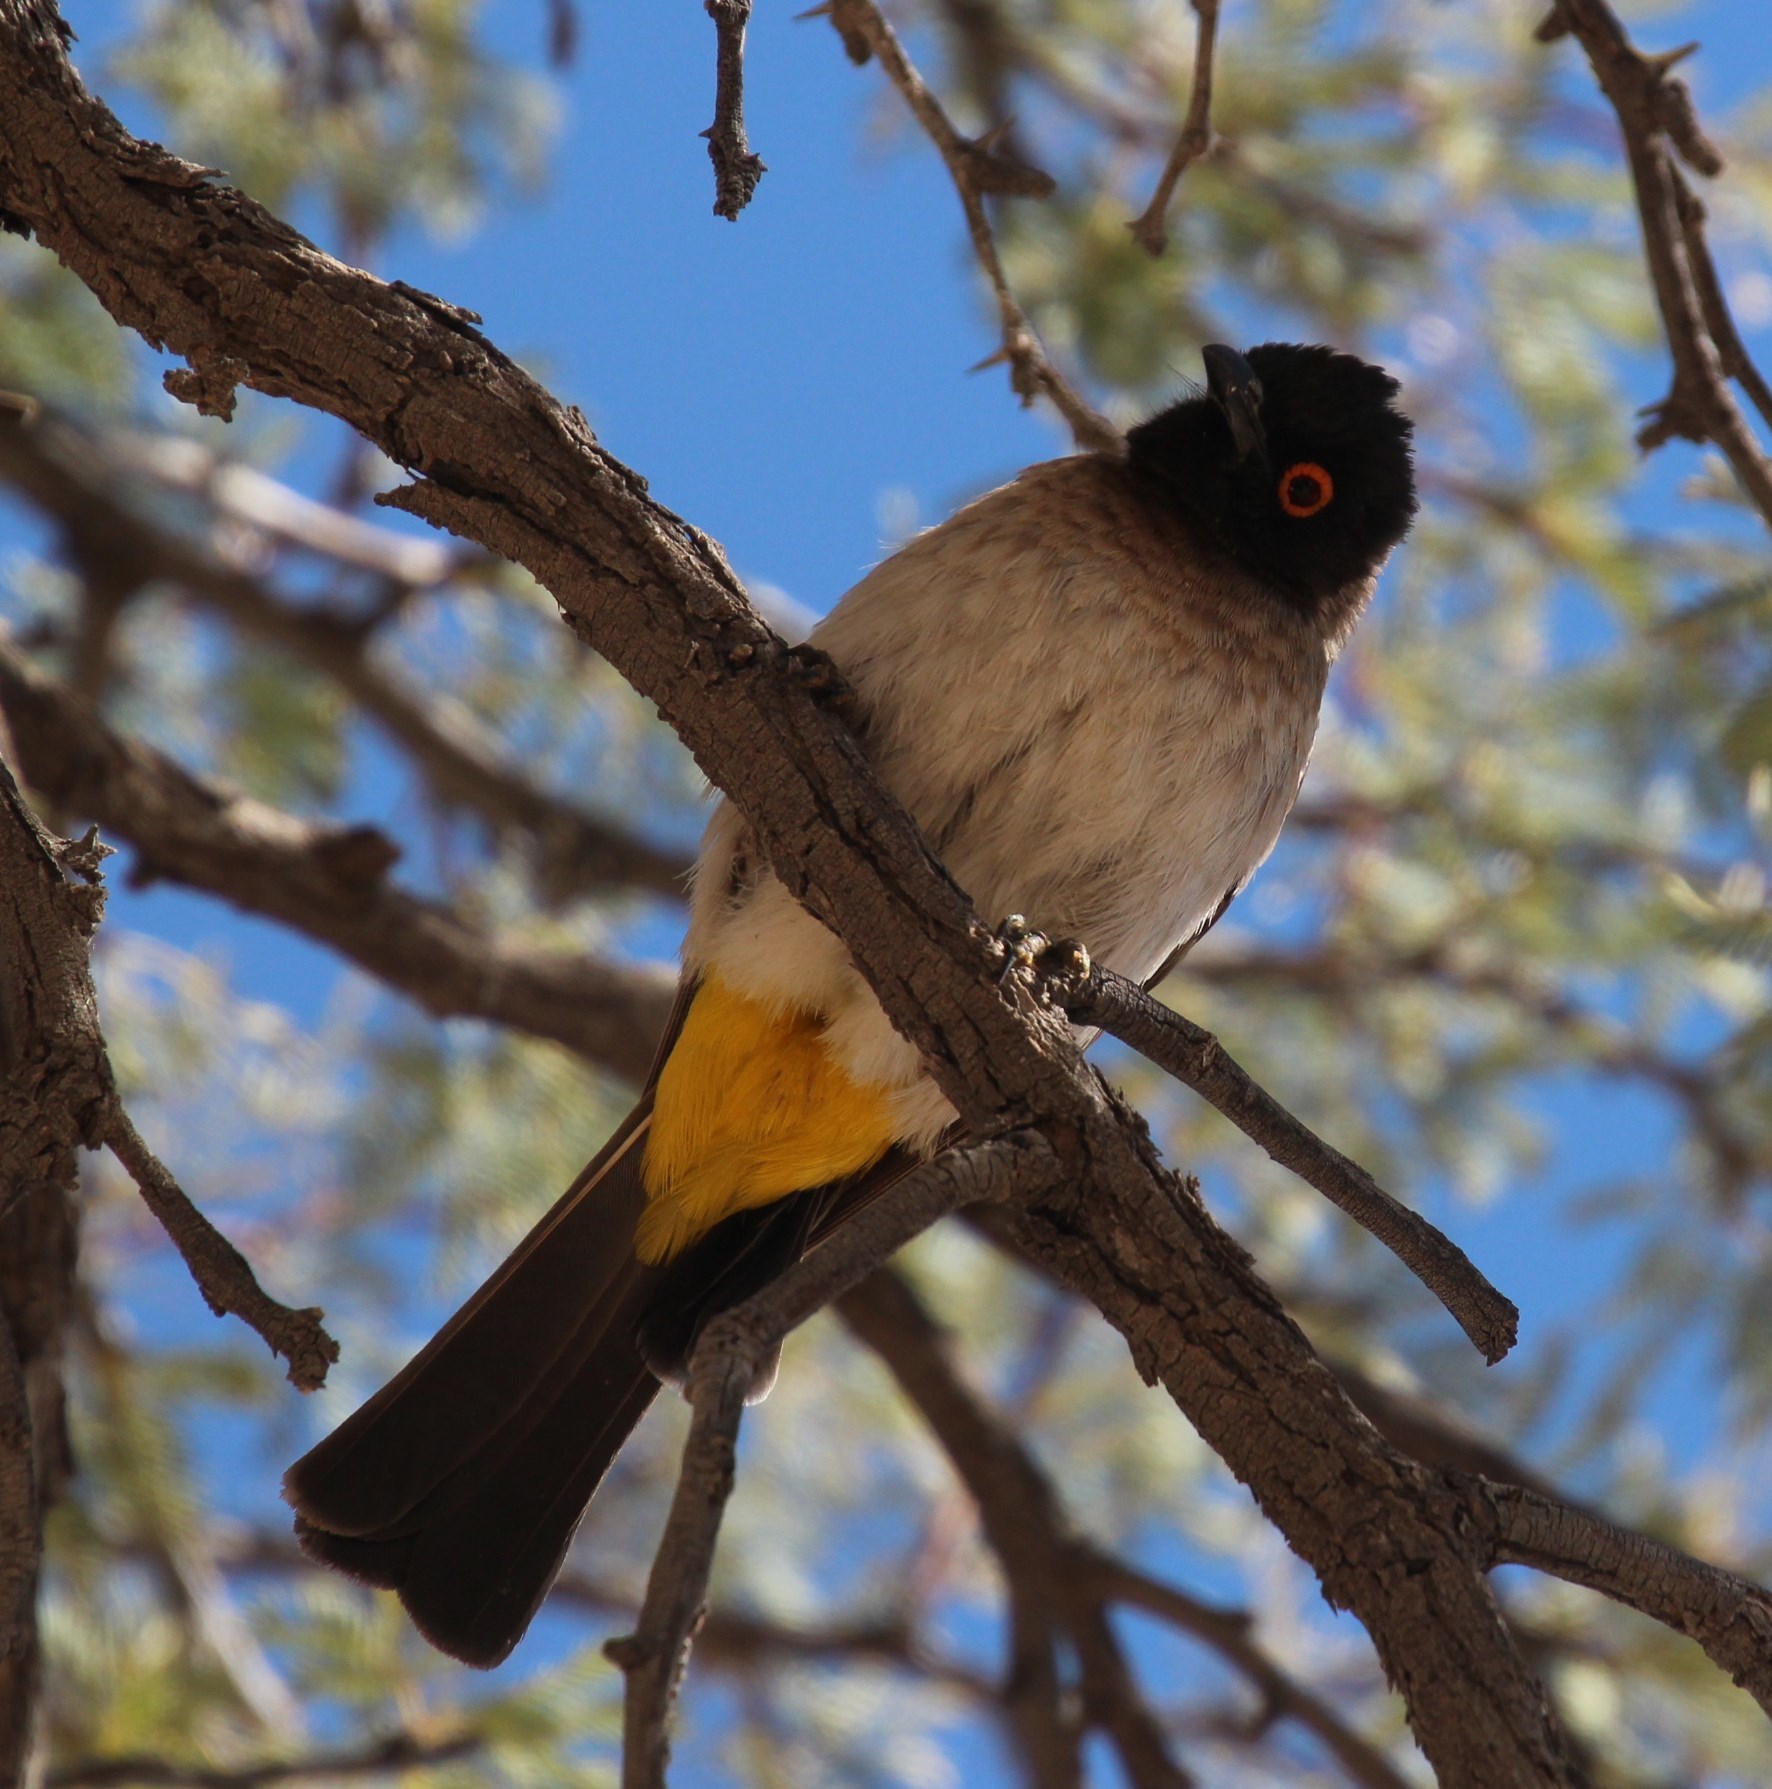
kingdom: Animalia
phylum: Chordata
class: Aves
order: Passeriformes
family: Pycnonotidae
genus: Pycnonotus
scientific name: Pycnonotus nigricans
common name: African red-eyed bulbul
